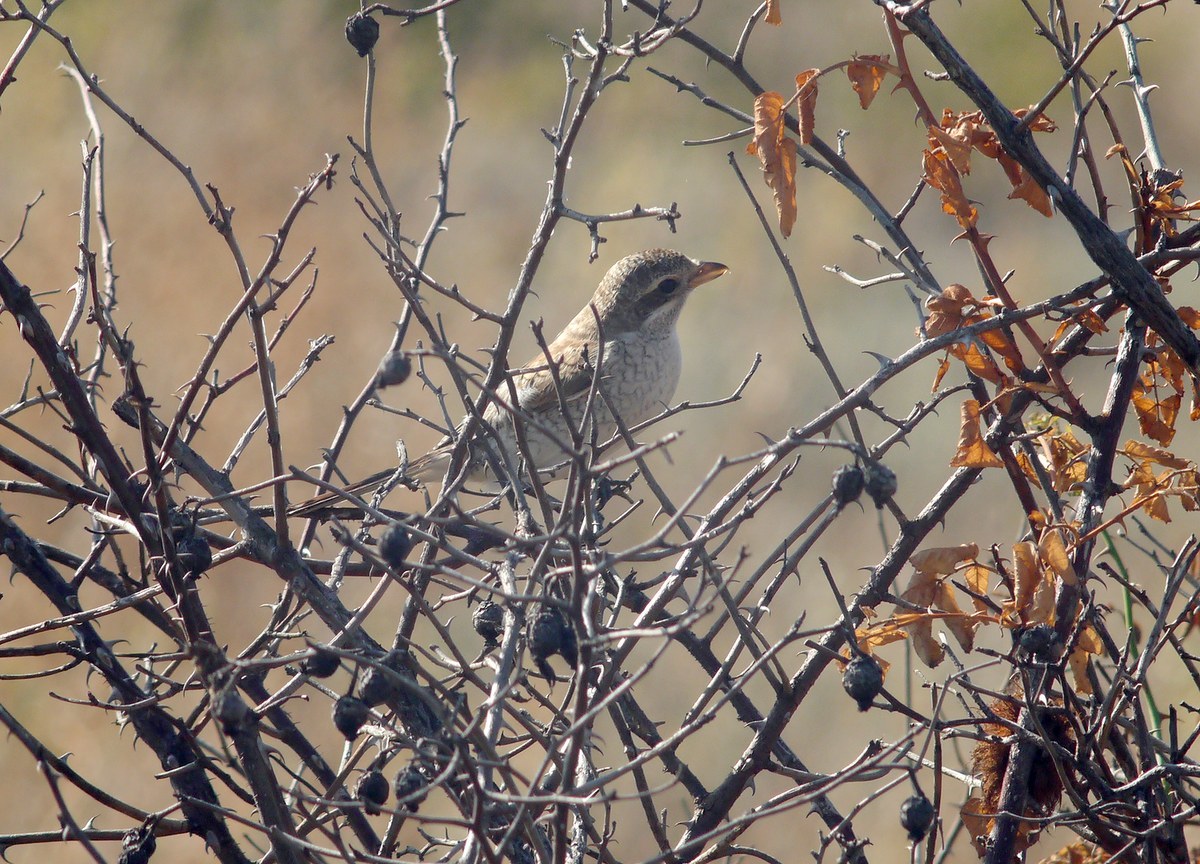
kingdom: Animalia
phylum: Chordata
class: Aves
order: Passeriformes
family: Laniidae
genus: Lanius
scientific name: Lanius collurio
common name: Red-backed shrike
